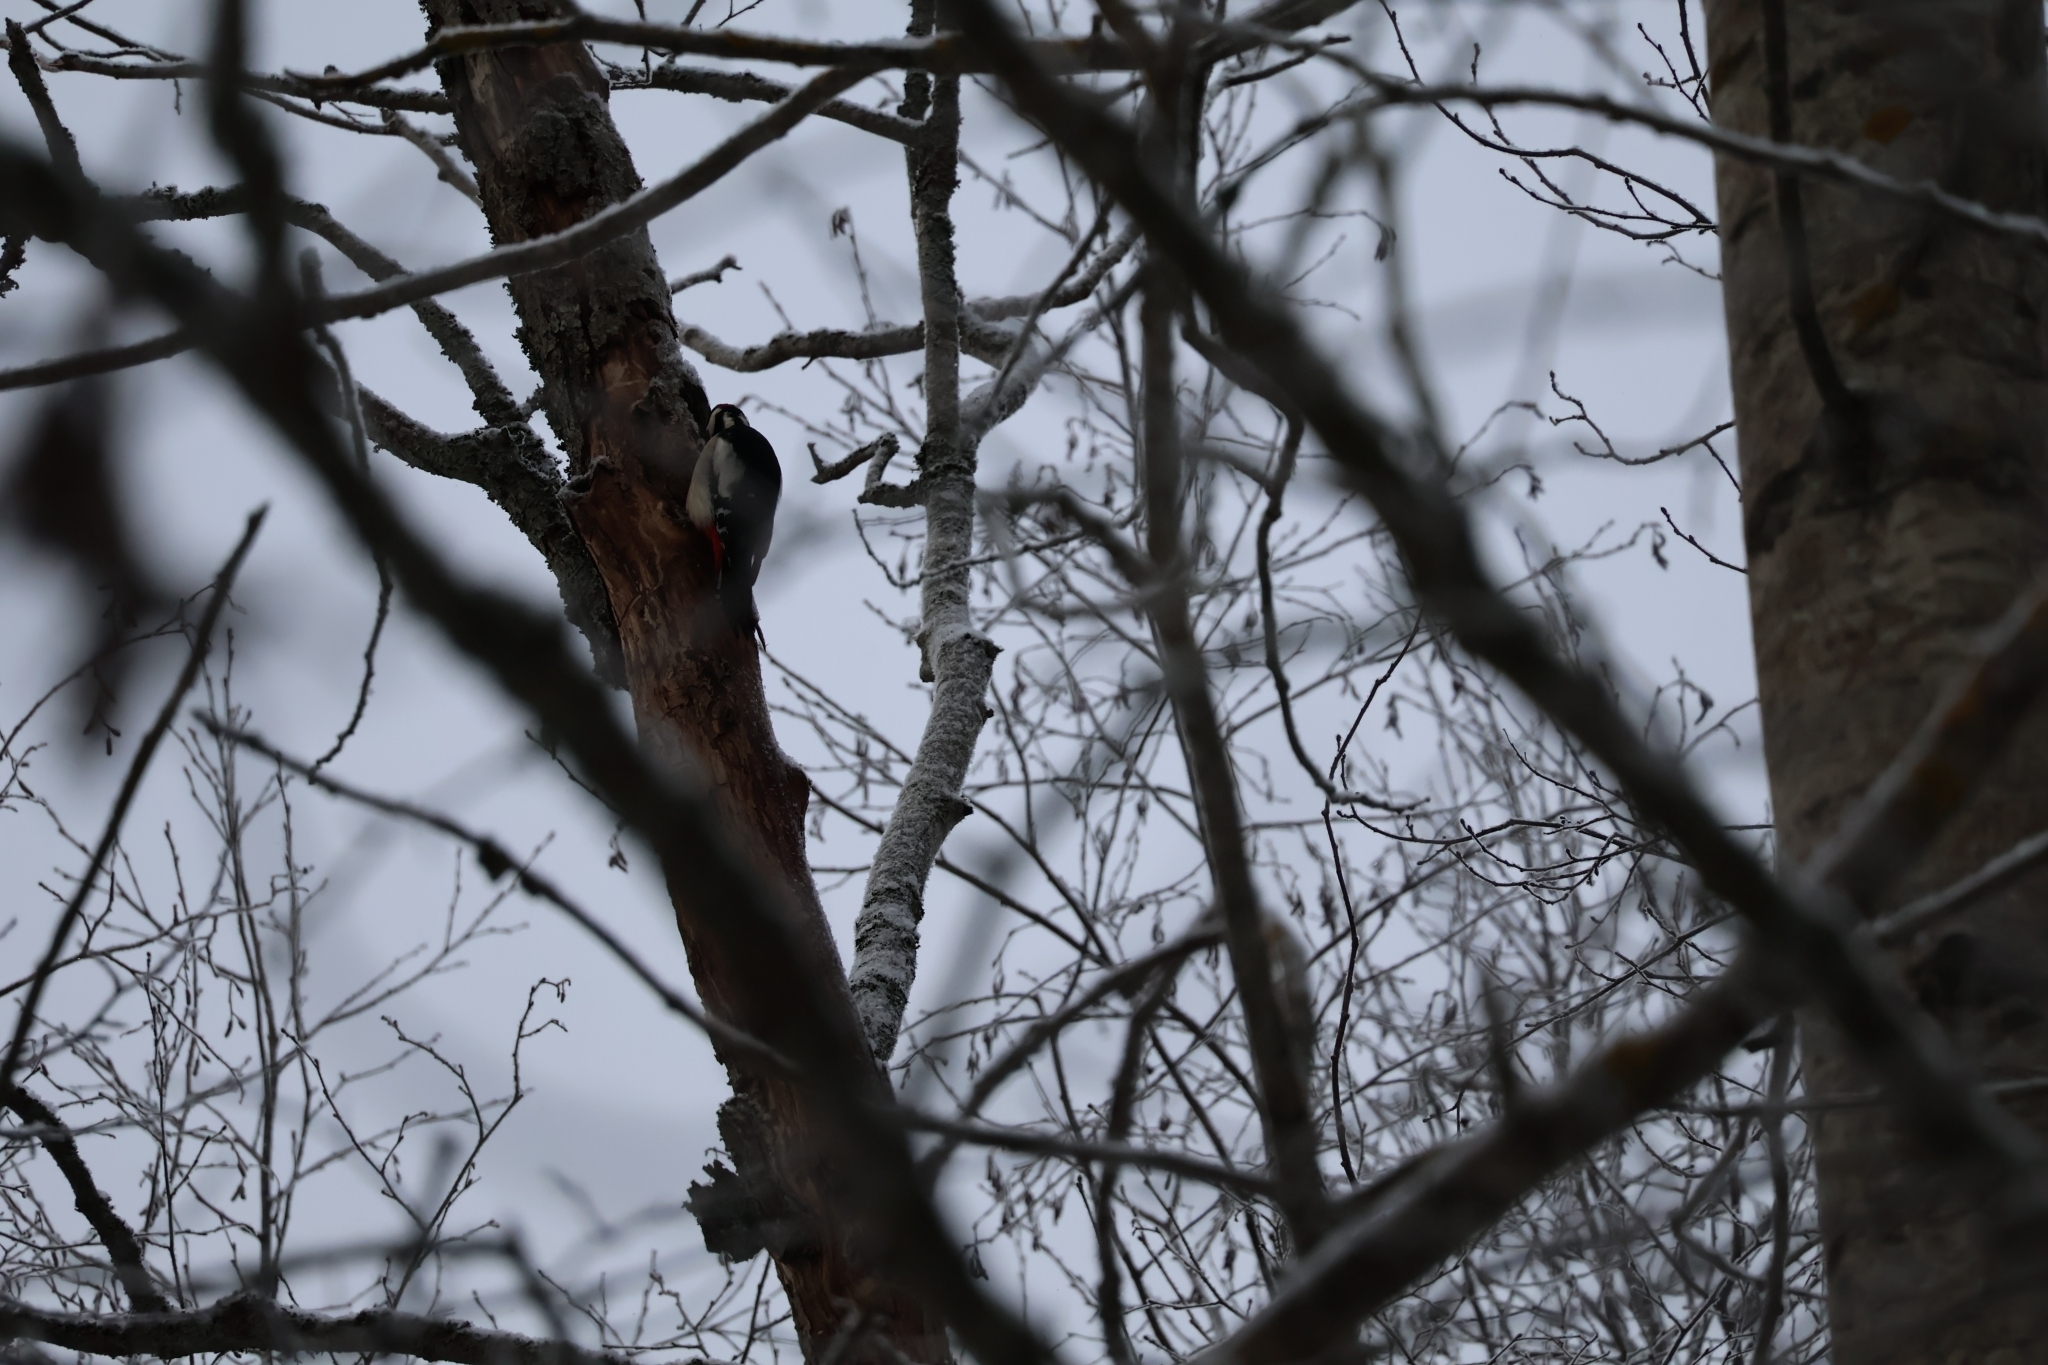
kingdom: Animalia
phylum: Chordata
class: Aves
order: Piciformes
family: Picidae
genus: Dendrocopos
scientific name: Dendrocopos major
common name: Great spotted woodpecker
